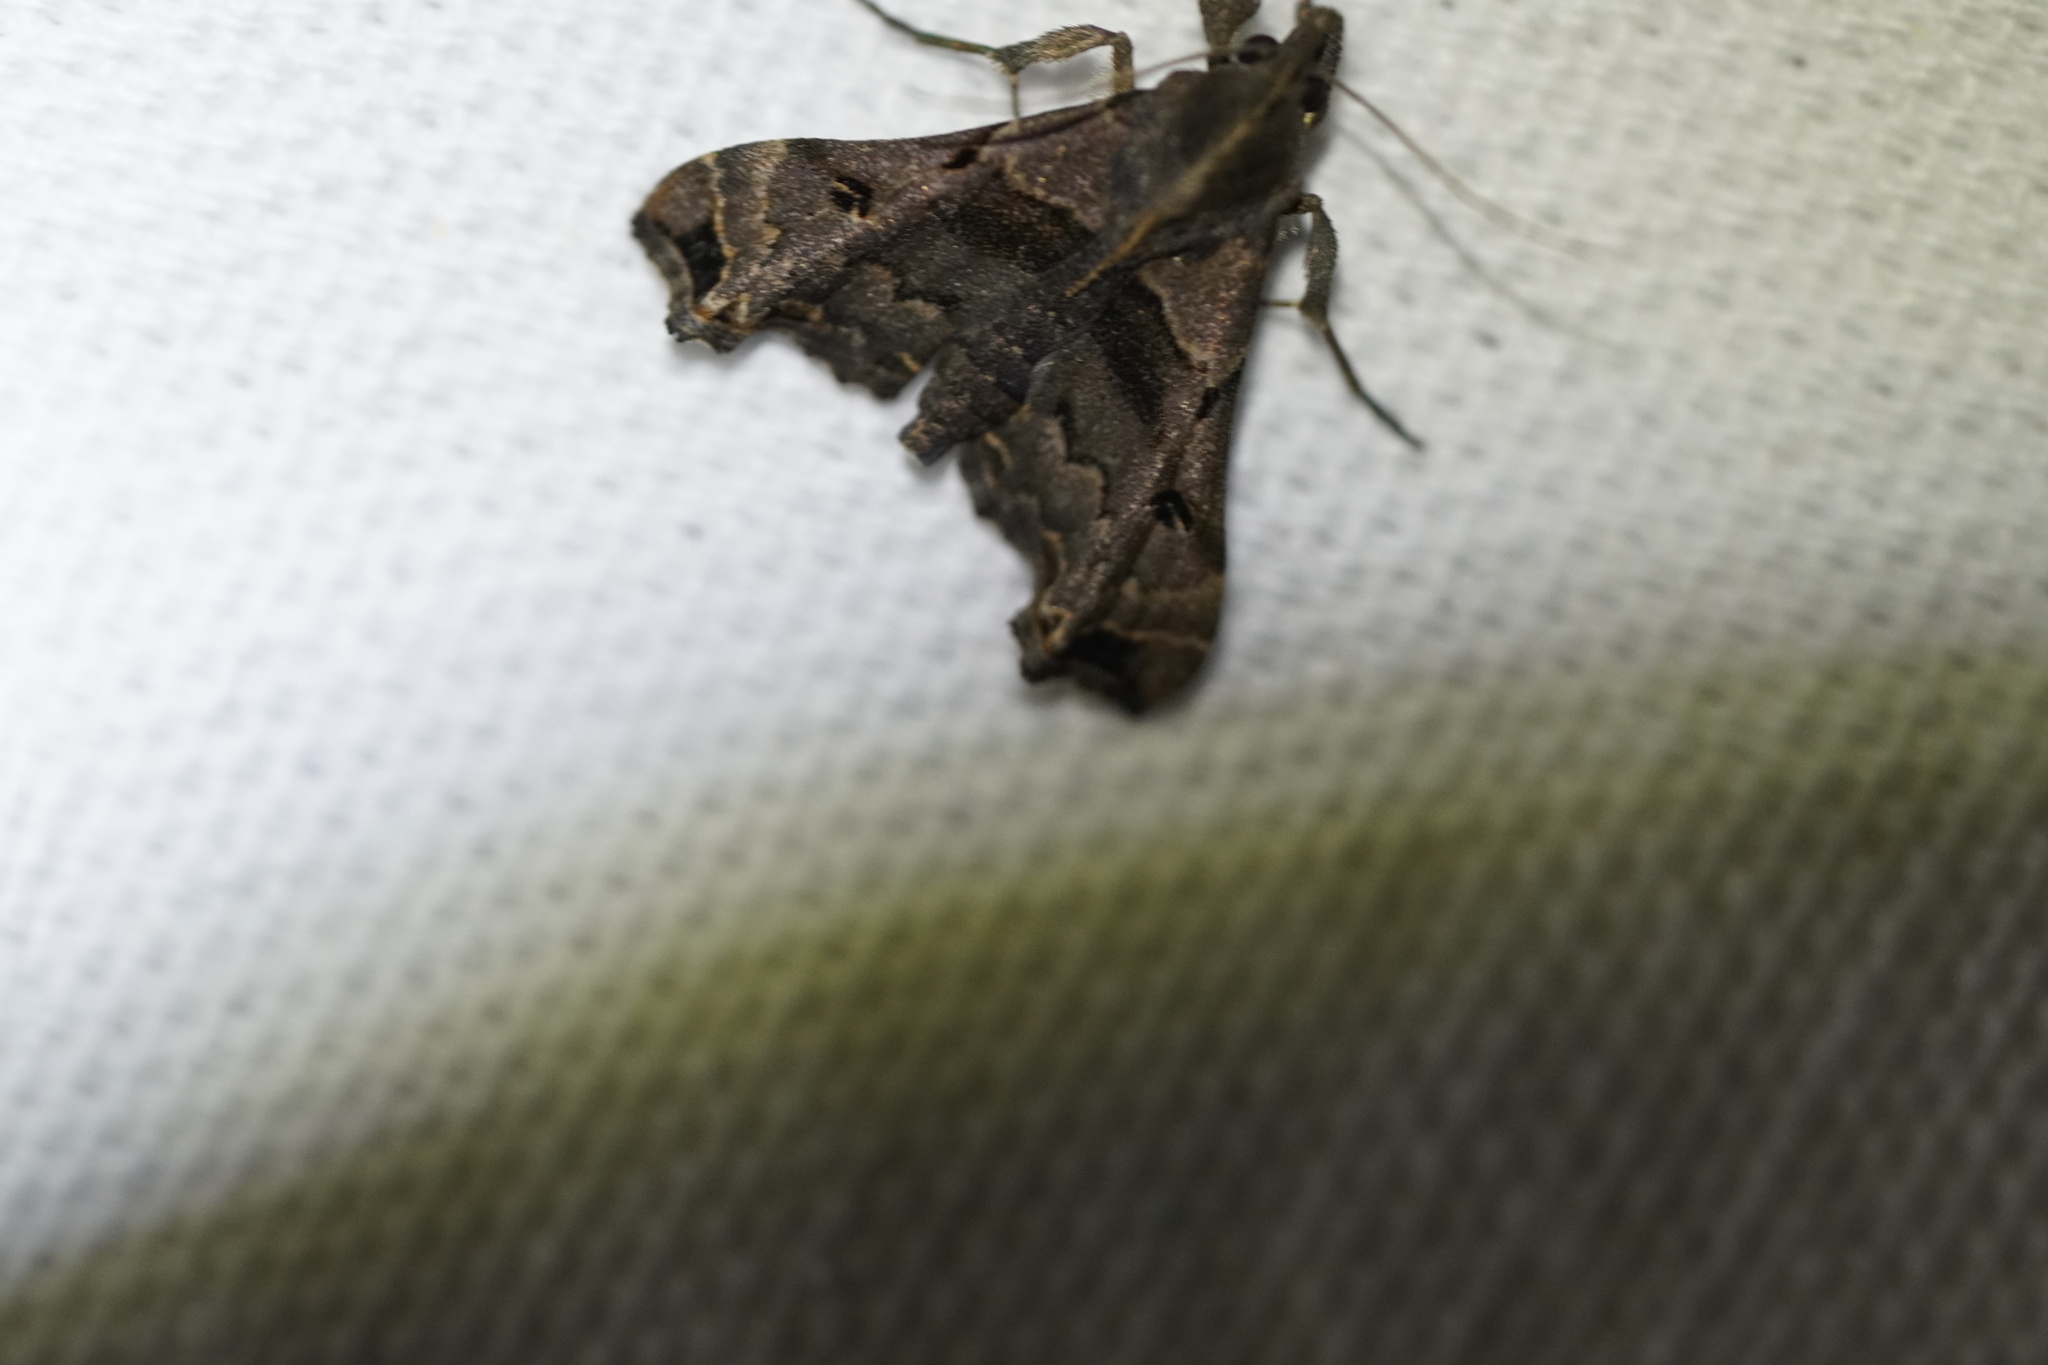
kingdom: Animalia
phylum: Arthropoda
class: Insecta
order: Lepidoptera
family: Erebidae
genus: Palthis
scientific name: Palthis asopialis
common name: Faint-spotted palthis moth
